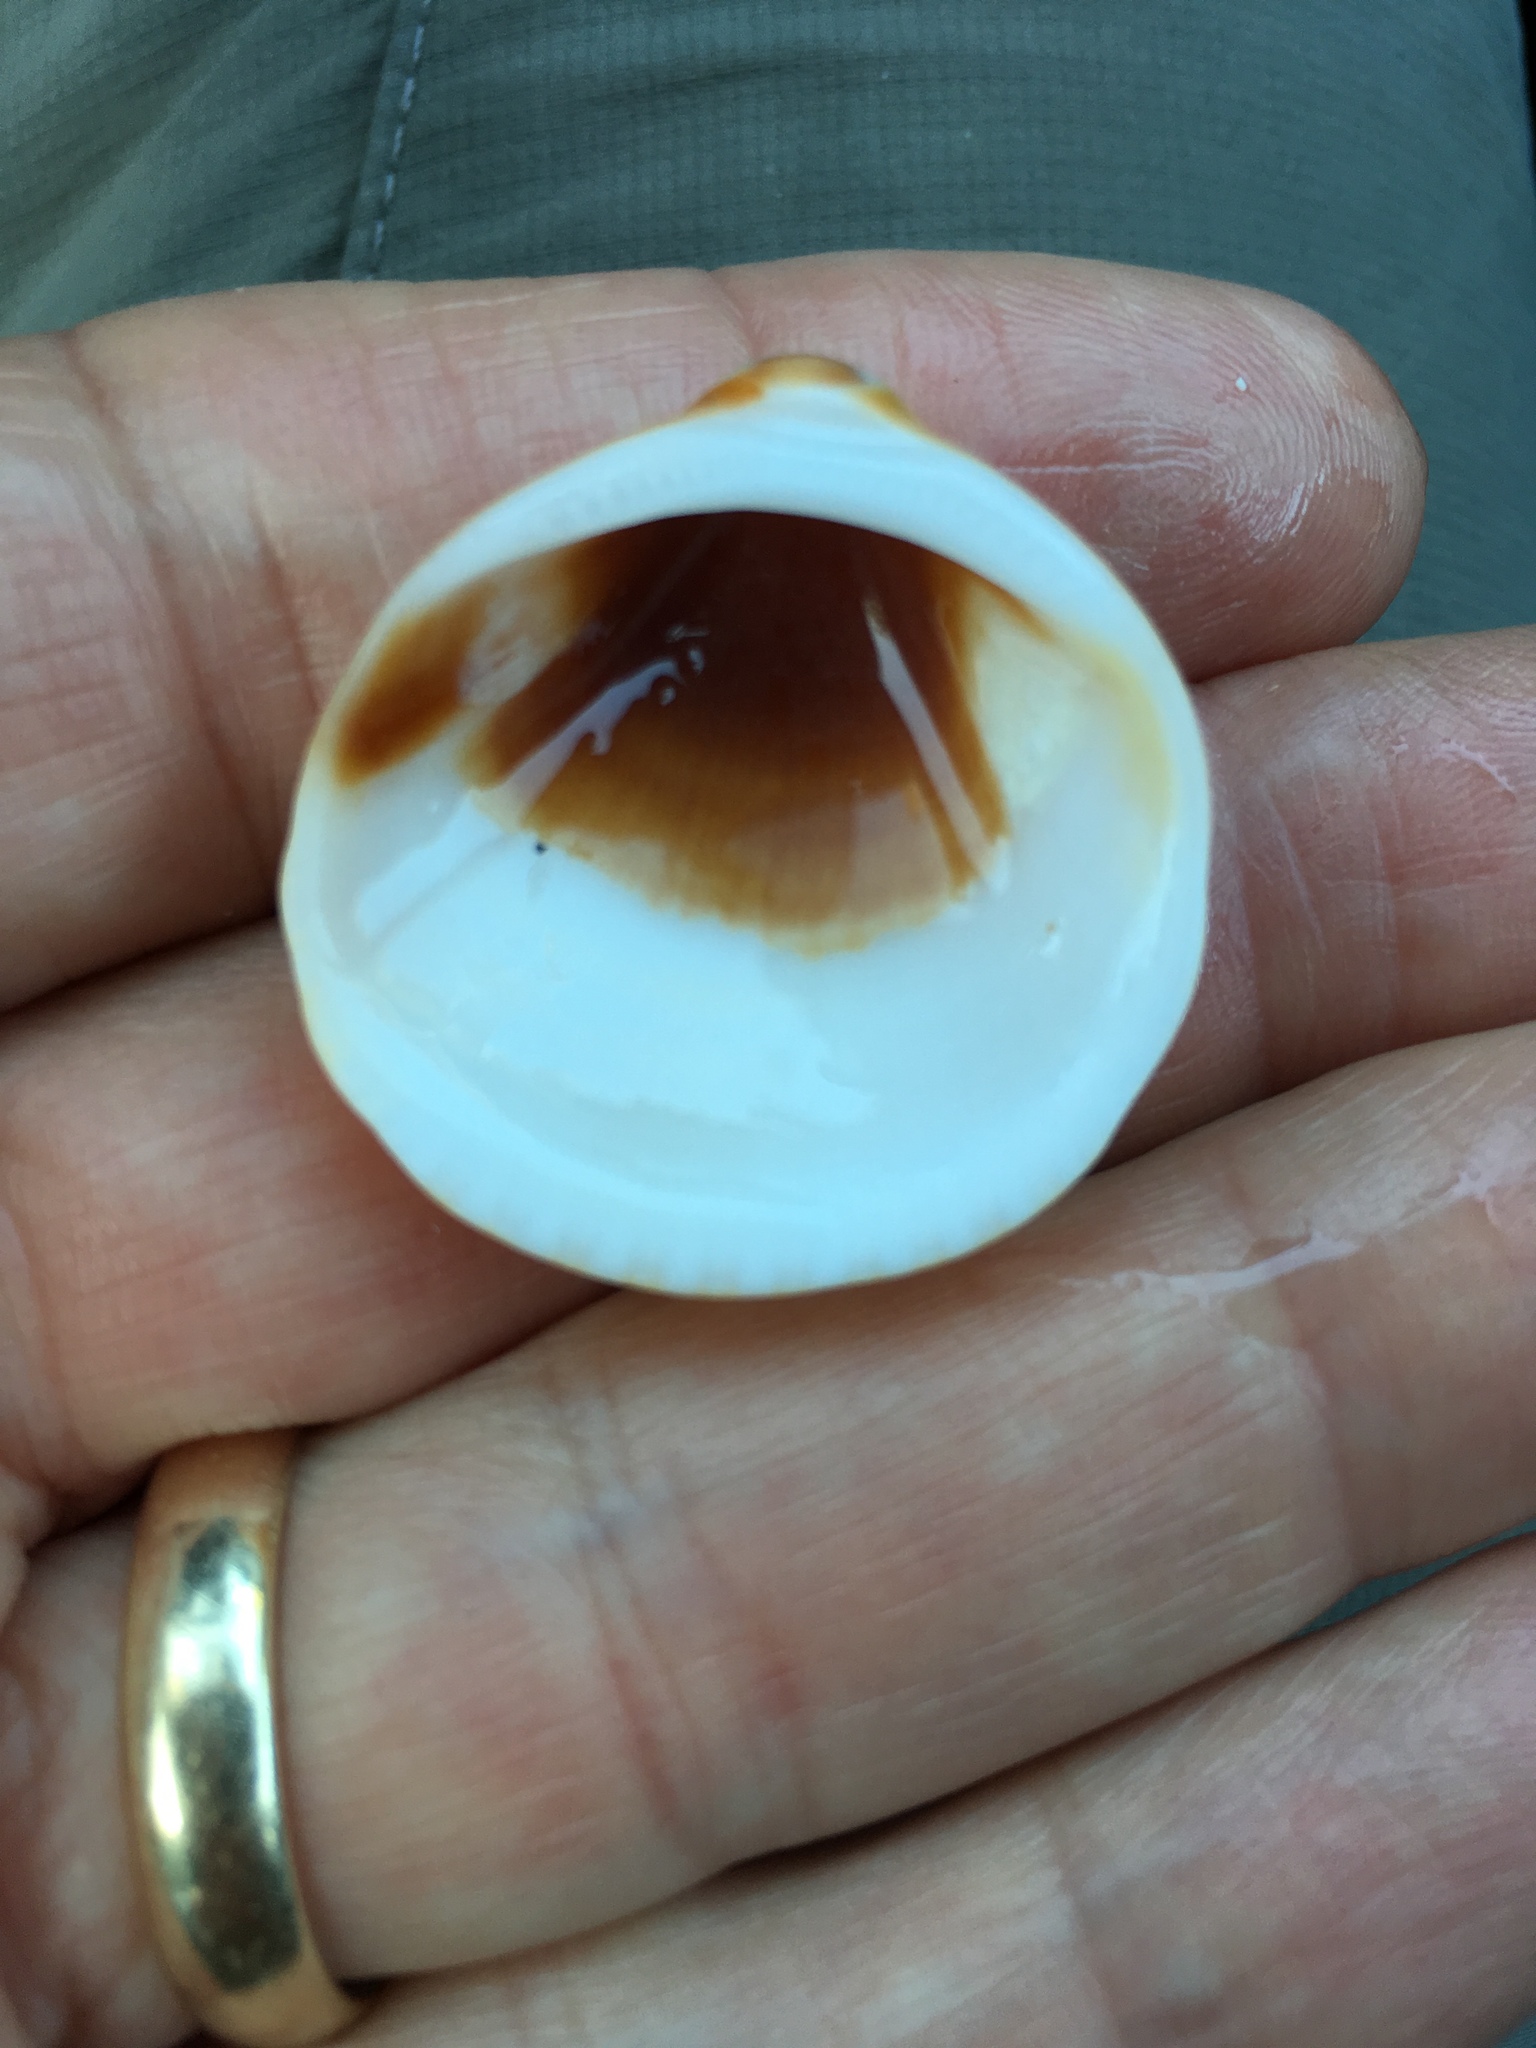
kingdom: Animalia
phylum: Mollusca
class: Bivalvia
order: Arcida
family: Glycymerididae
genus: Glycymeris
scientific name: Glycymeris spectralis
